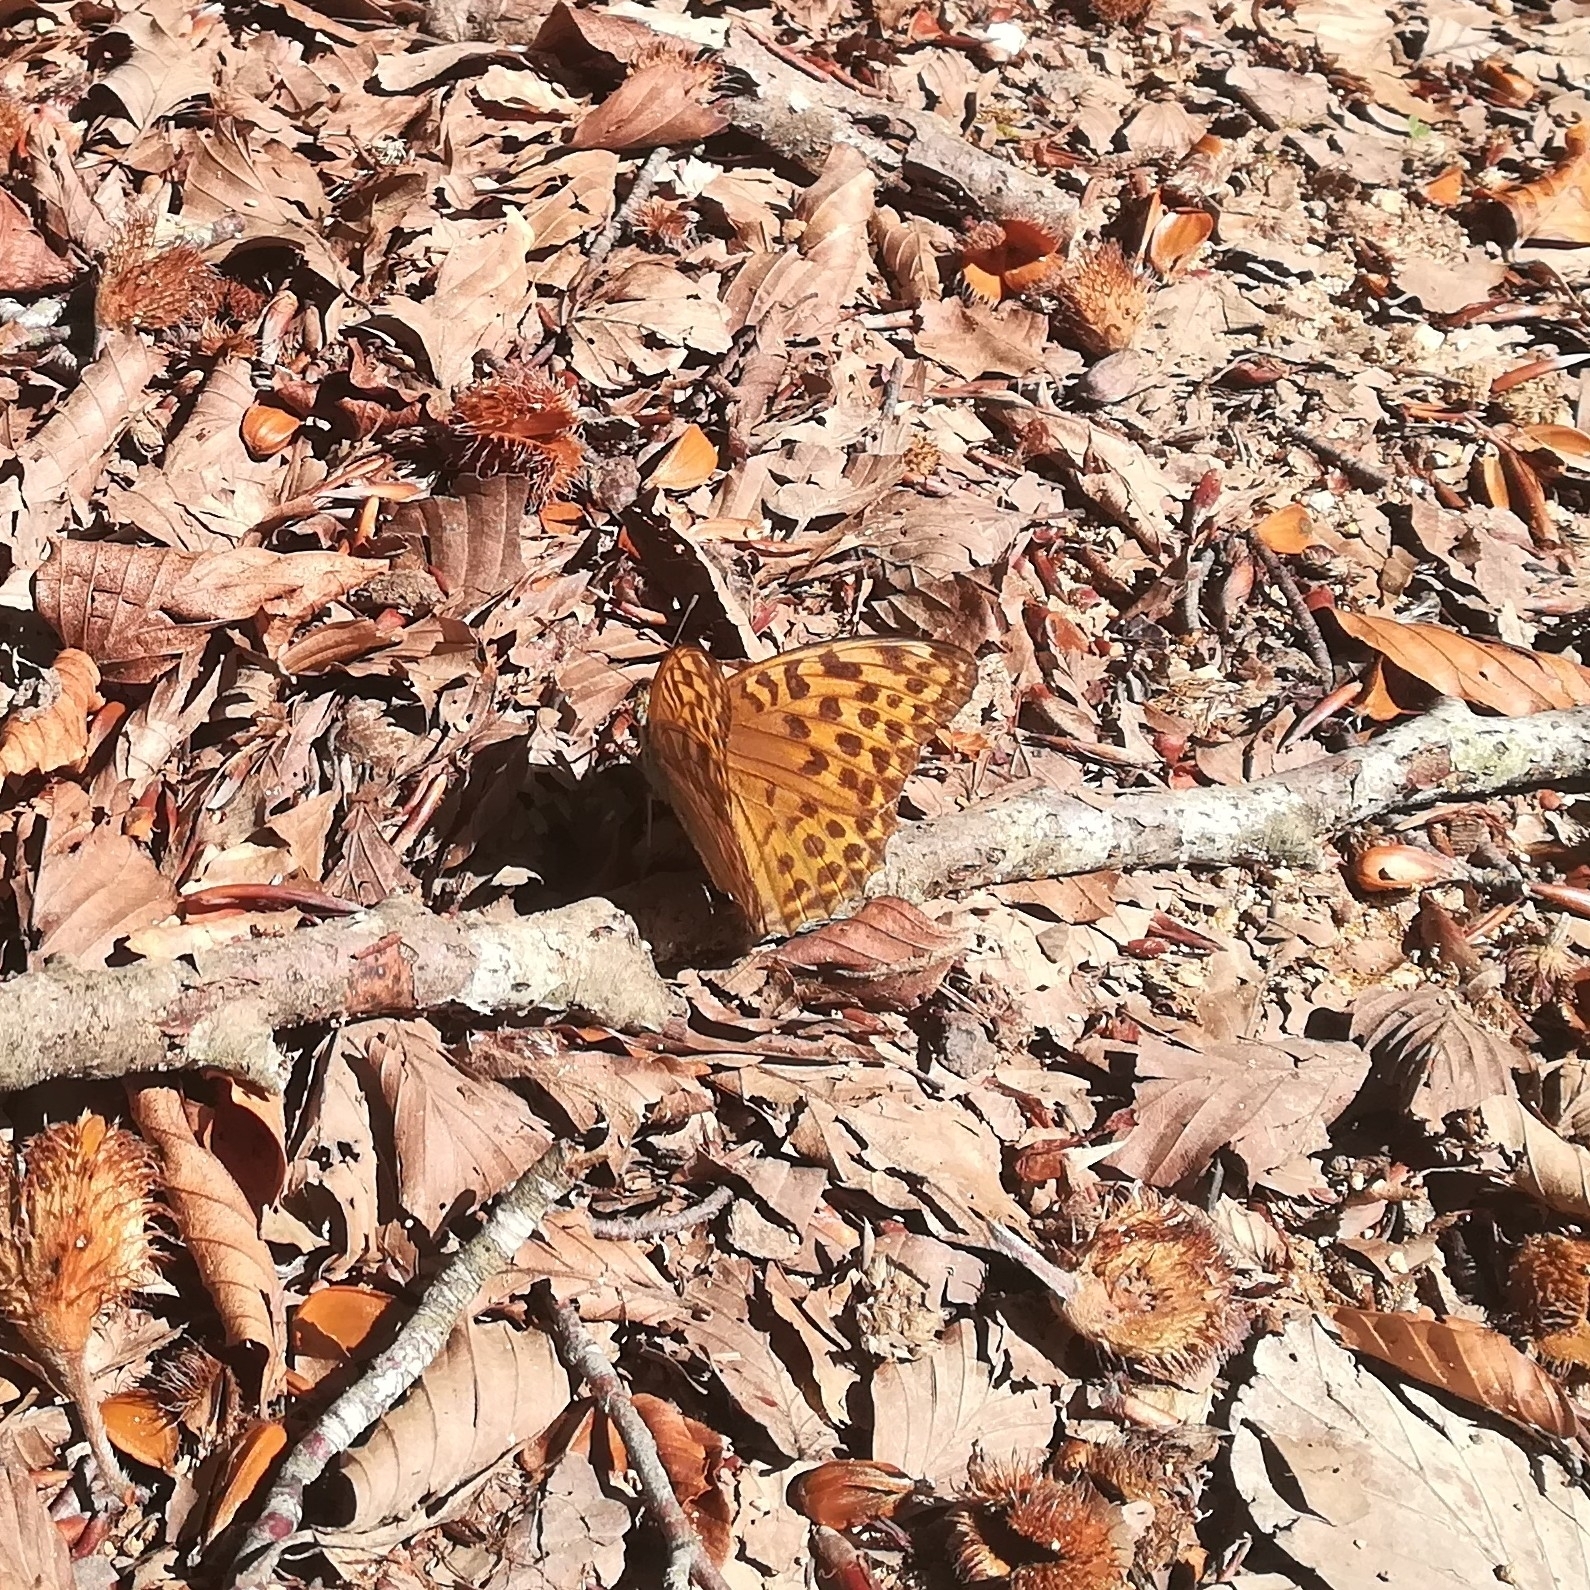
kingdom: Animalia
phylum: Arthropoda
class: Insecta
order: Lepidoptera
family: Nymphalidae
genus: Argynnis
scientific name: Argynnis paphia
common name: Silver-washed fritillary
